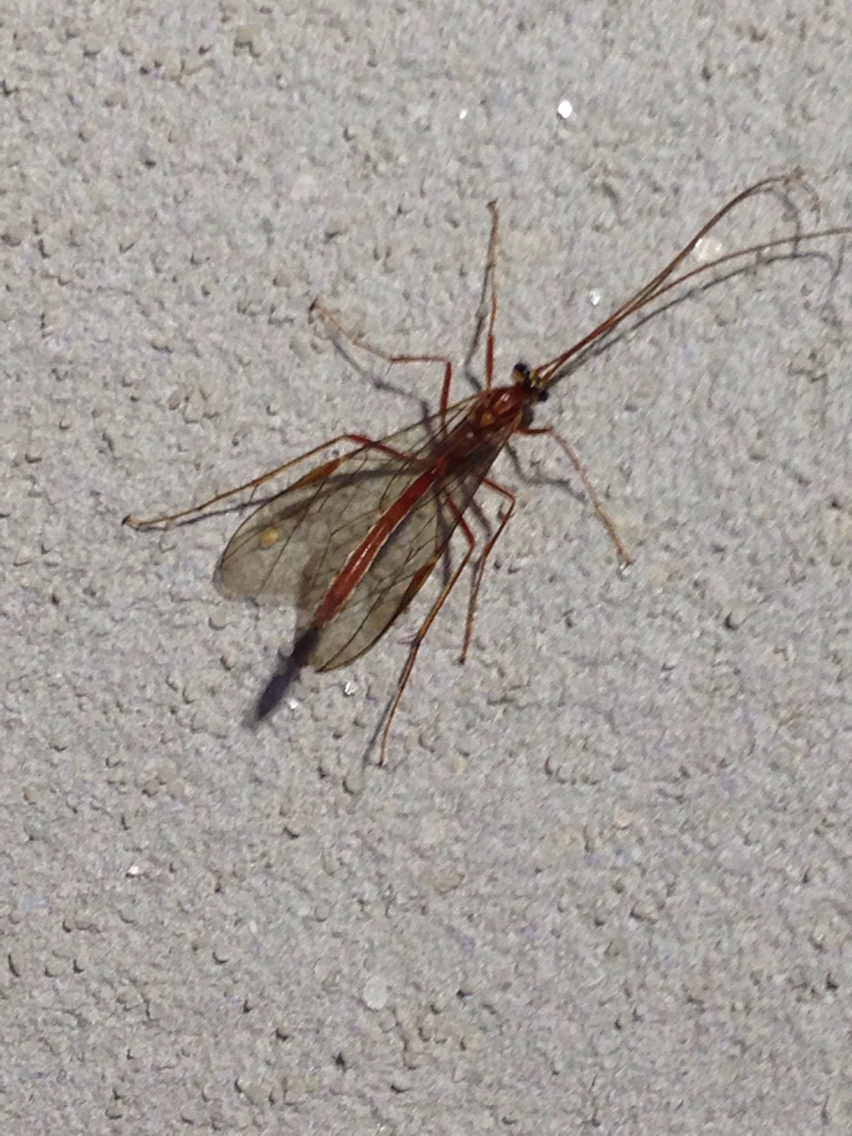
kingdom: Animalia
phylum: Arthropoda
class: Insecta
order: Hymenoptera
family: Ichneumonidae
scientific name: Ichneumonidae
